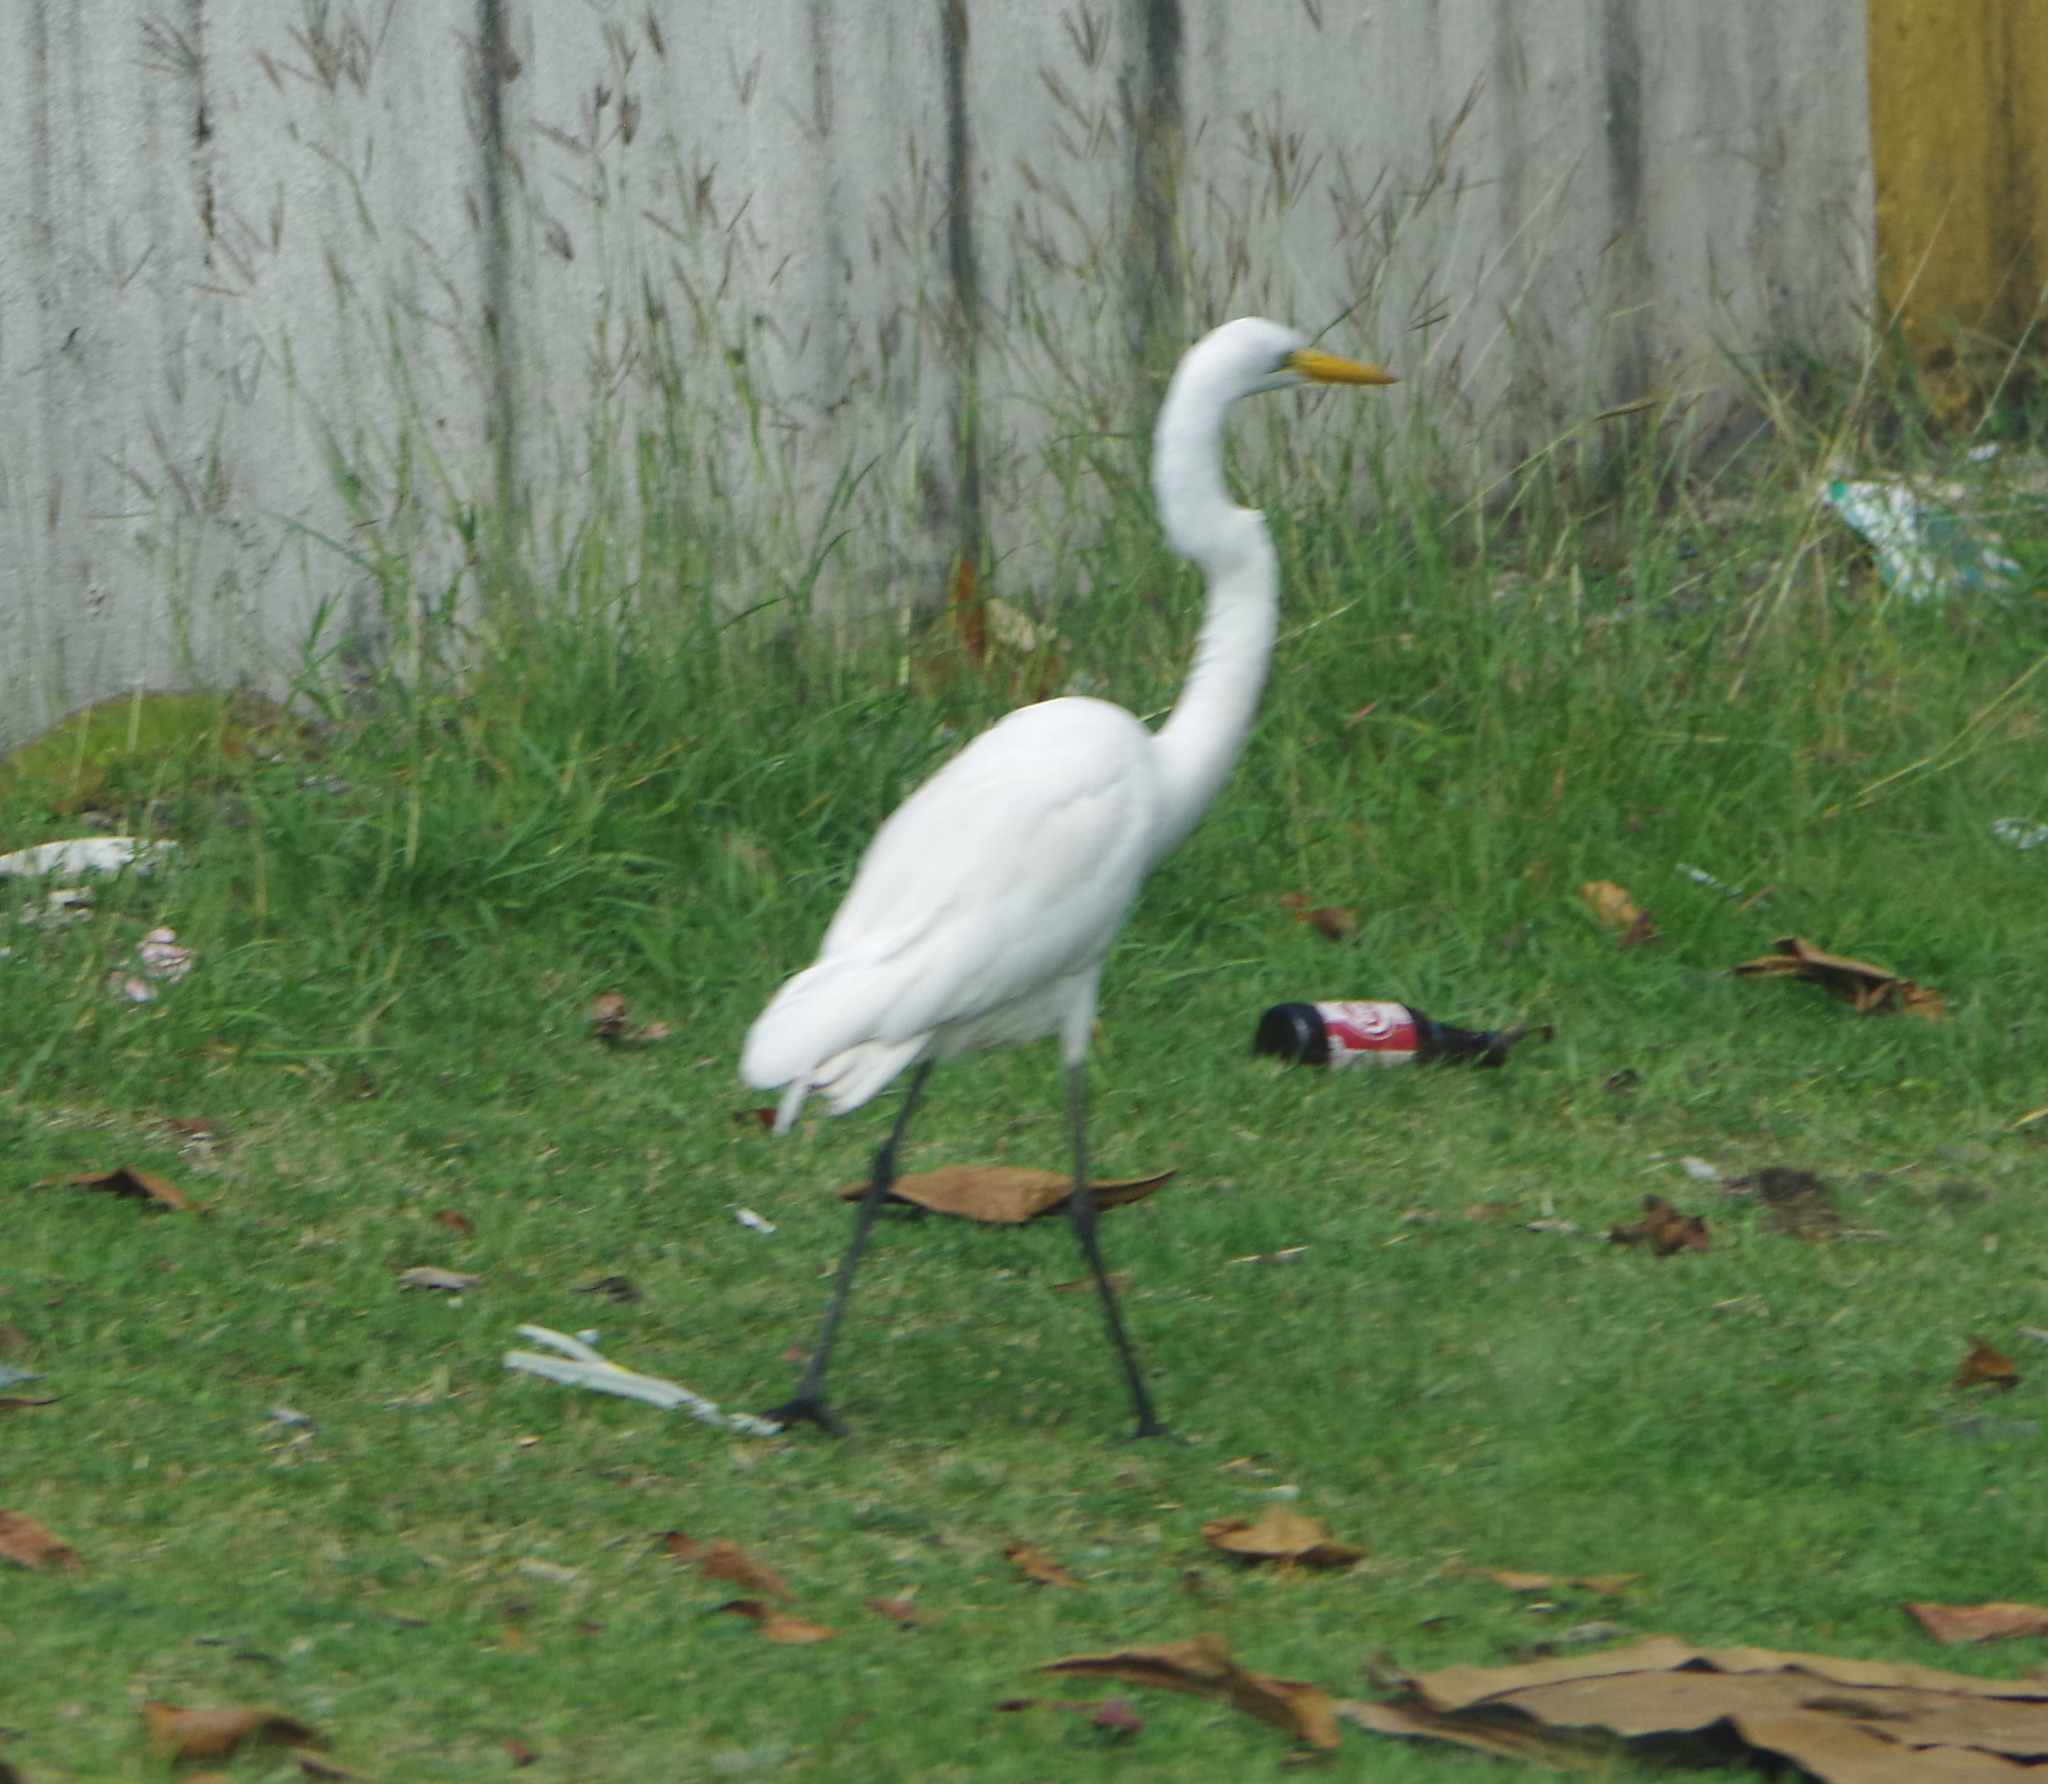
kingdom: Animalia
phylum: Chordata
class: Aves
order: Pelecaniformes
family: Ardeidae
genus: Ardea
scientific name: Ardea alba
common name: Great egret
